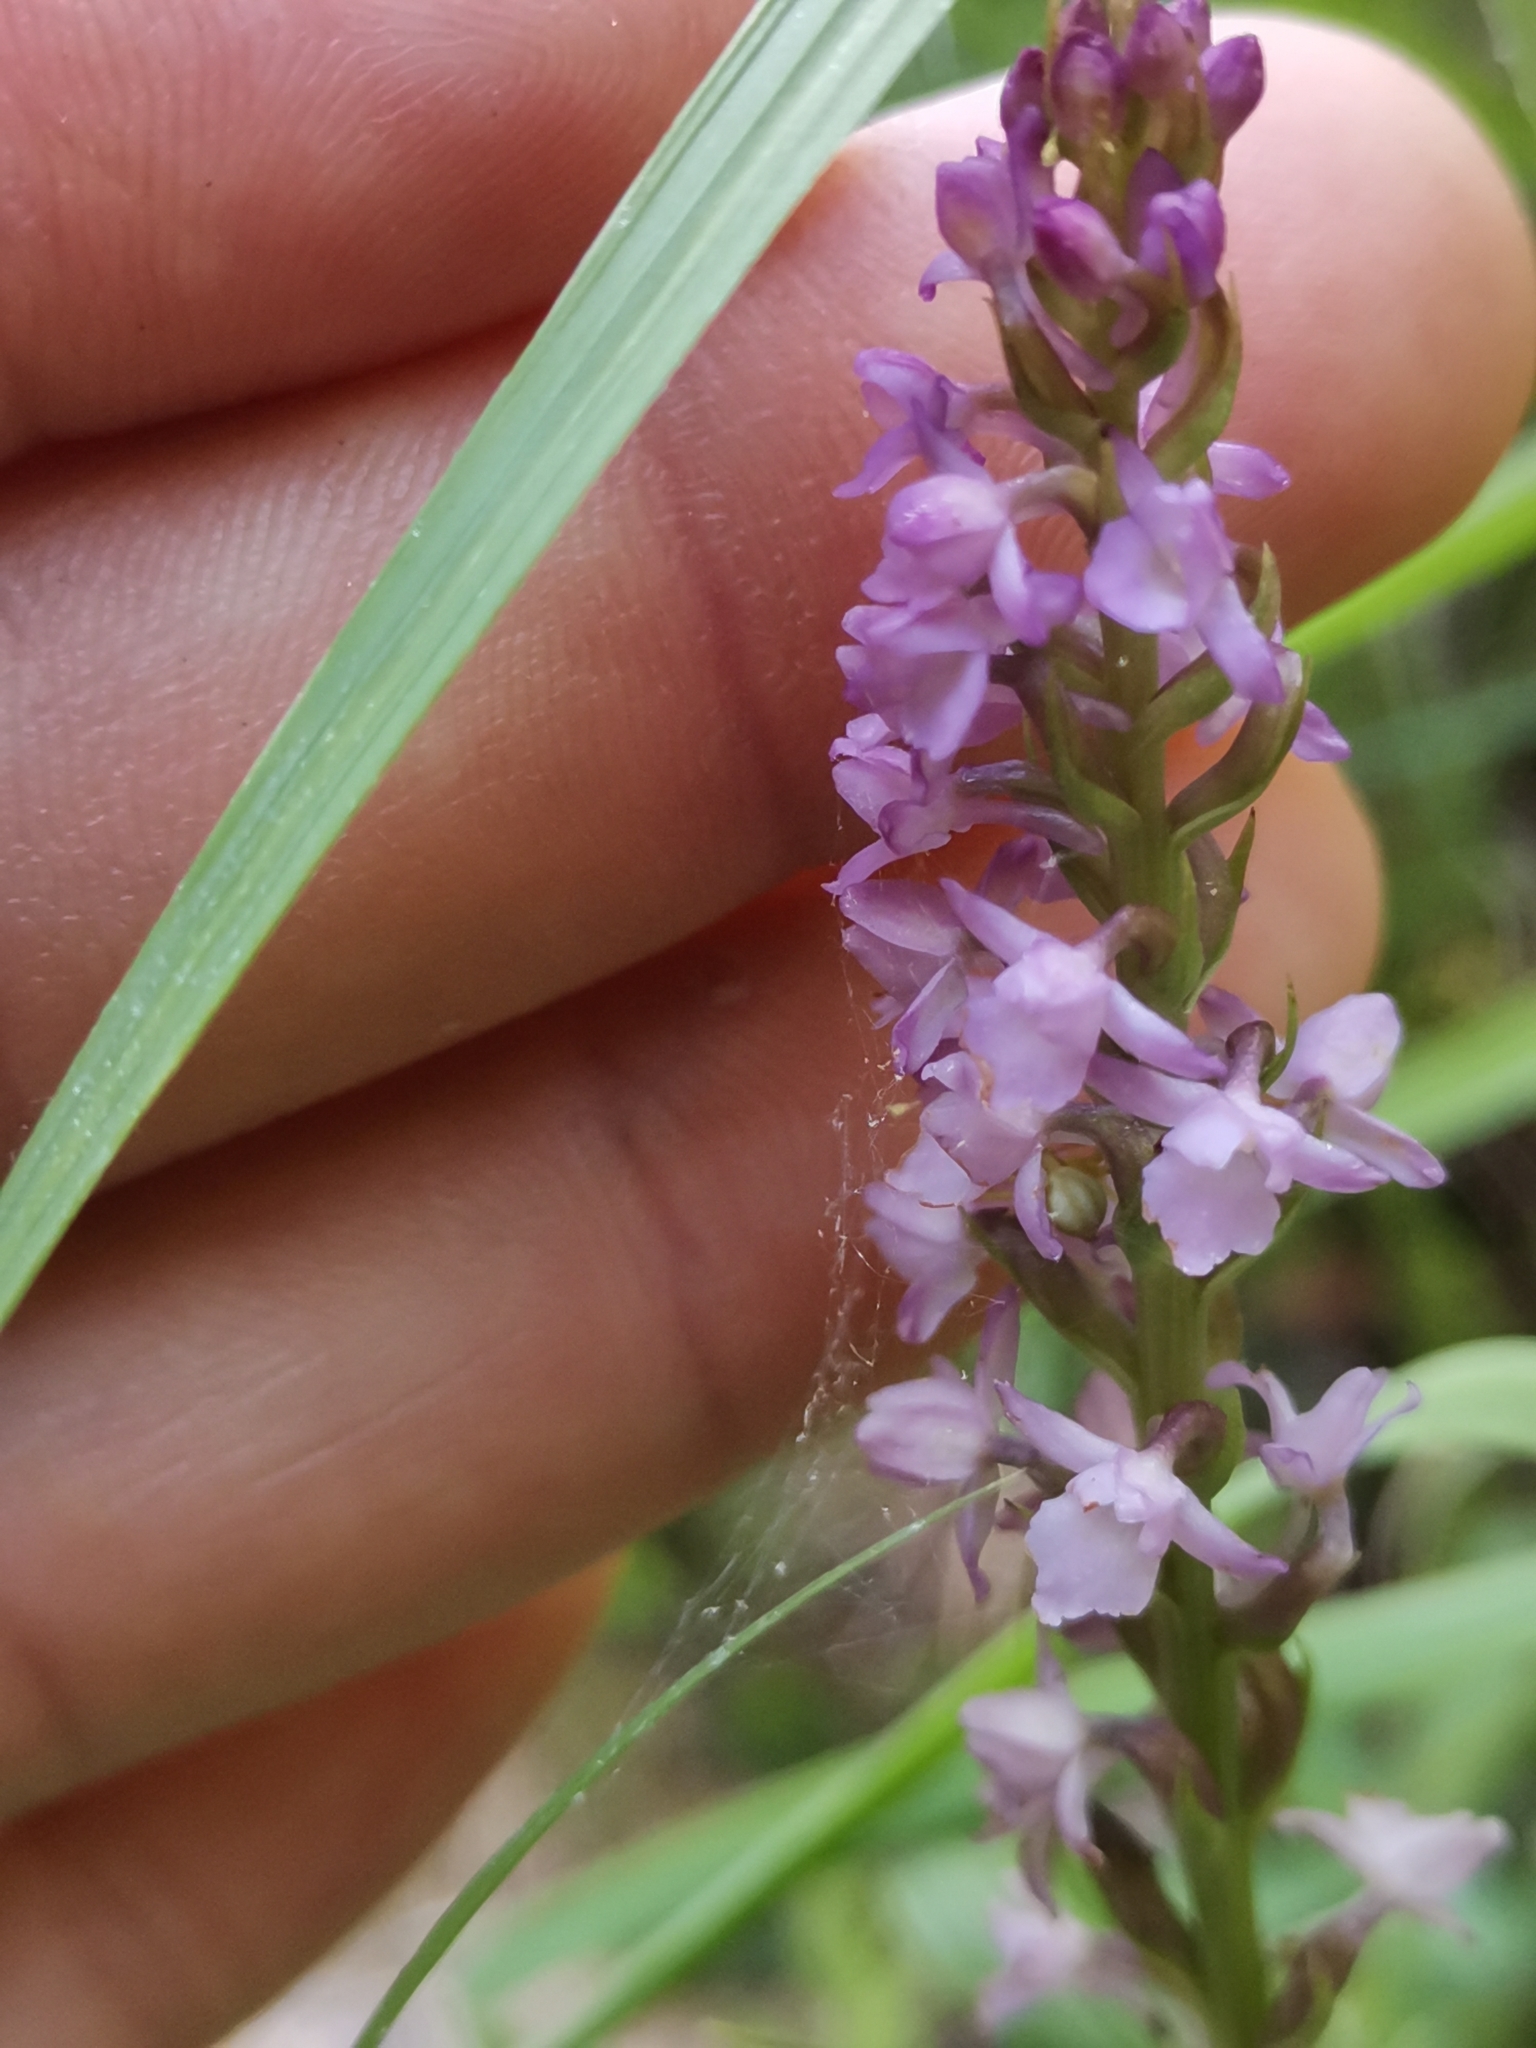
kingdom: Plantae
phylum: Tracheophyta
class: Liliopsida
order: Asparagales
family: Orchidaceae
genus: Gymnadenia
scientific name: Gymnadenia odoratissima
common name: Scented gymnadenia
